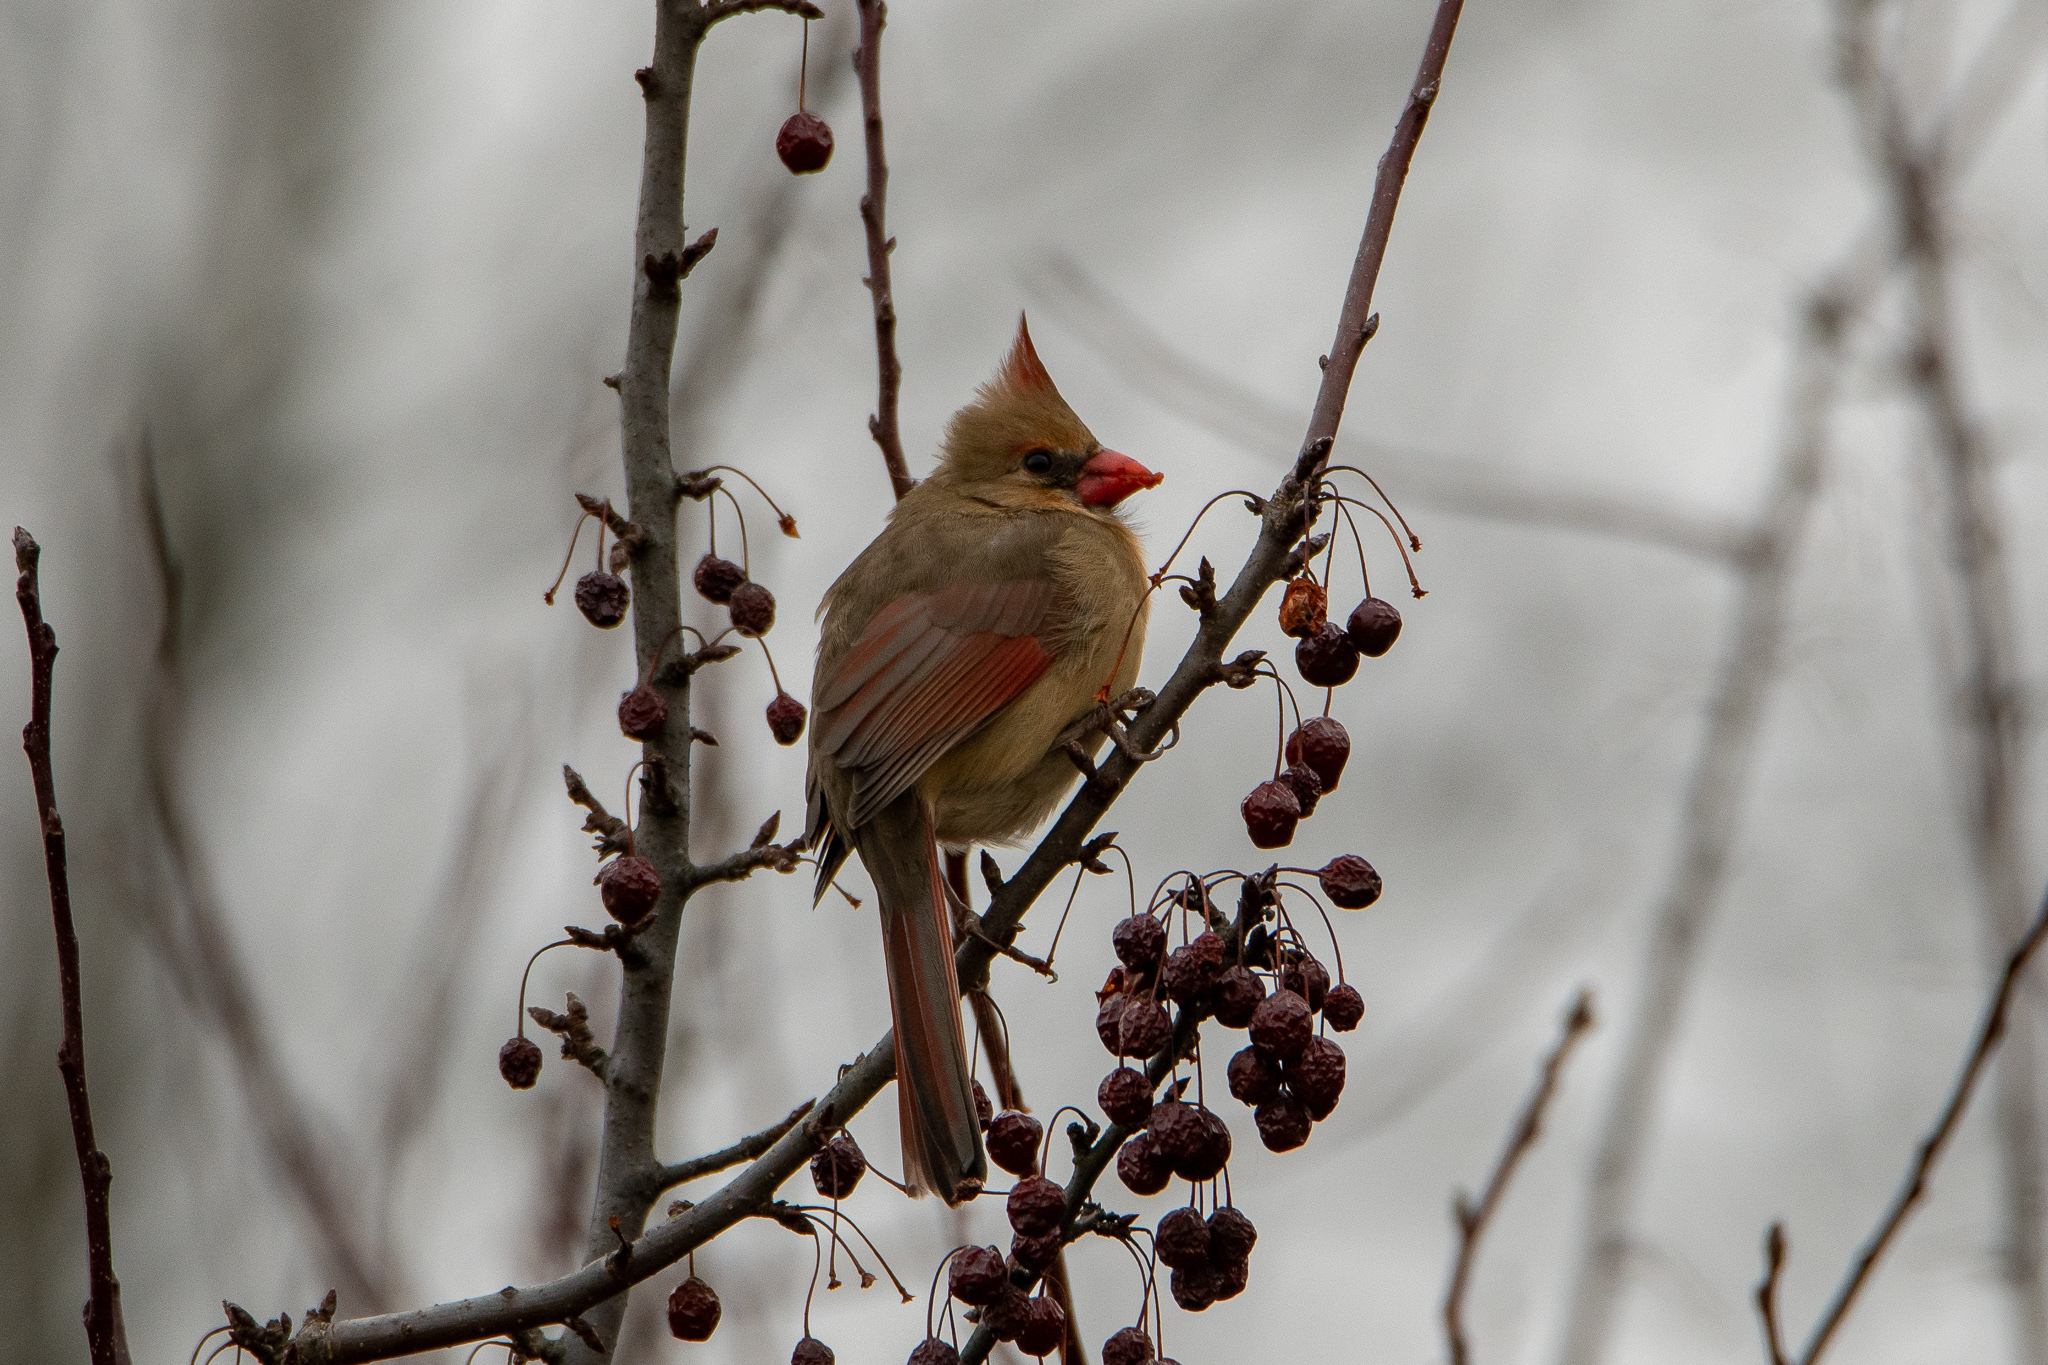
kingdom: Animalia
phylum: Chordata
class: Aves
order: Passeriformes
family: Cardinalidae
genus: Cardinalis
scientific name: Cardinalis cardinalis
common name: Northern cardinal
